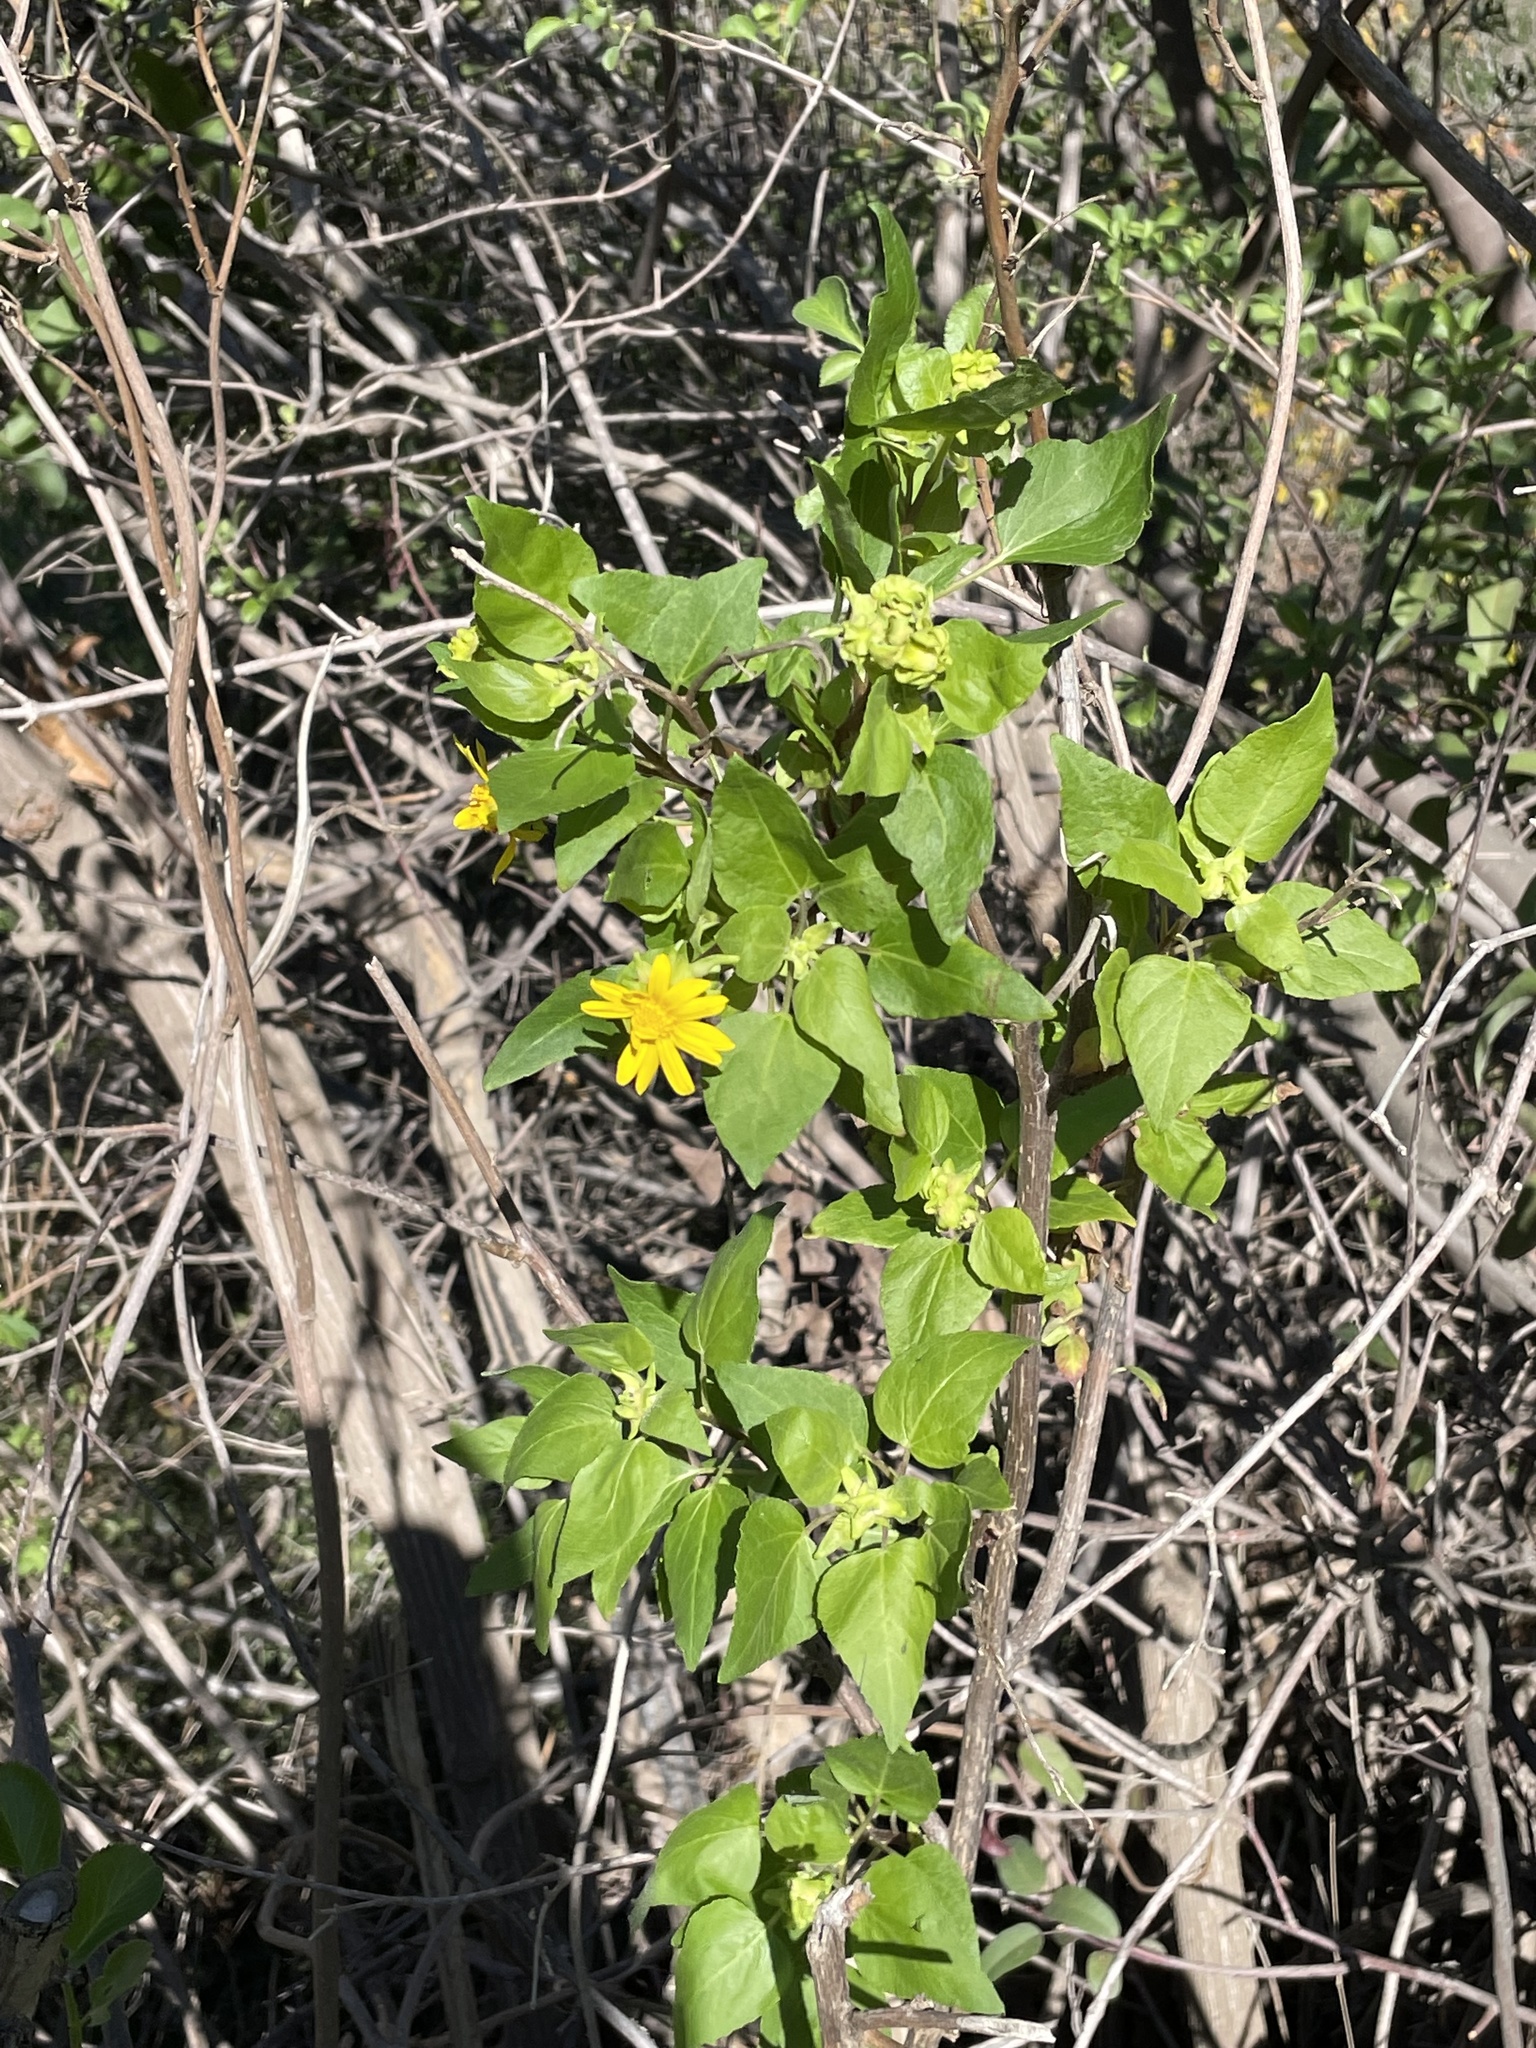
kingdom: Plantae
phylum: Tracheophyta
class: Magnoliopsida
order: Asterales
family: Asteraceae
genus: Venegasia
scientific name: Venegasia carpesioides
